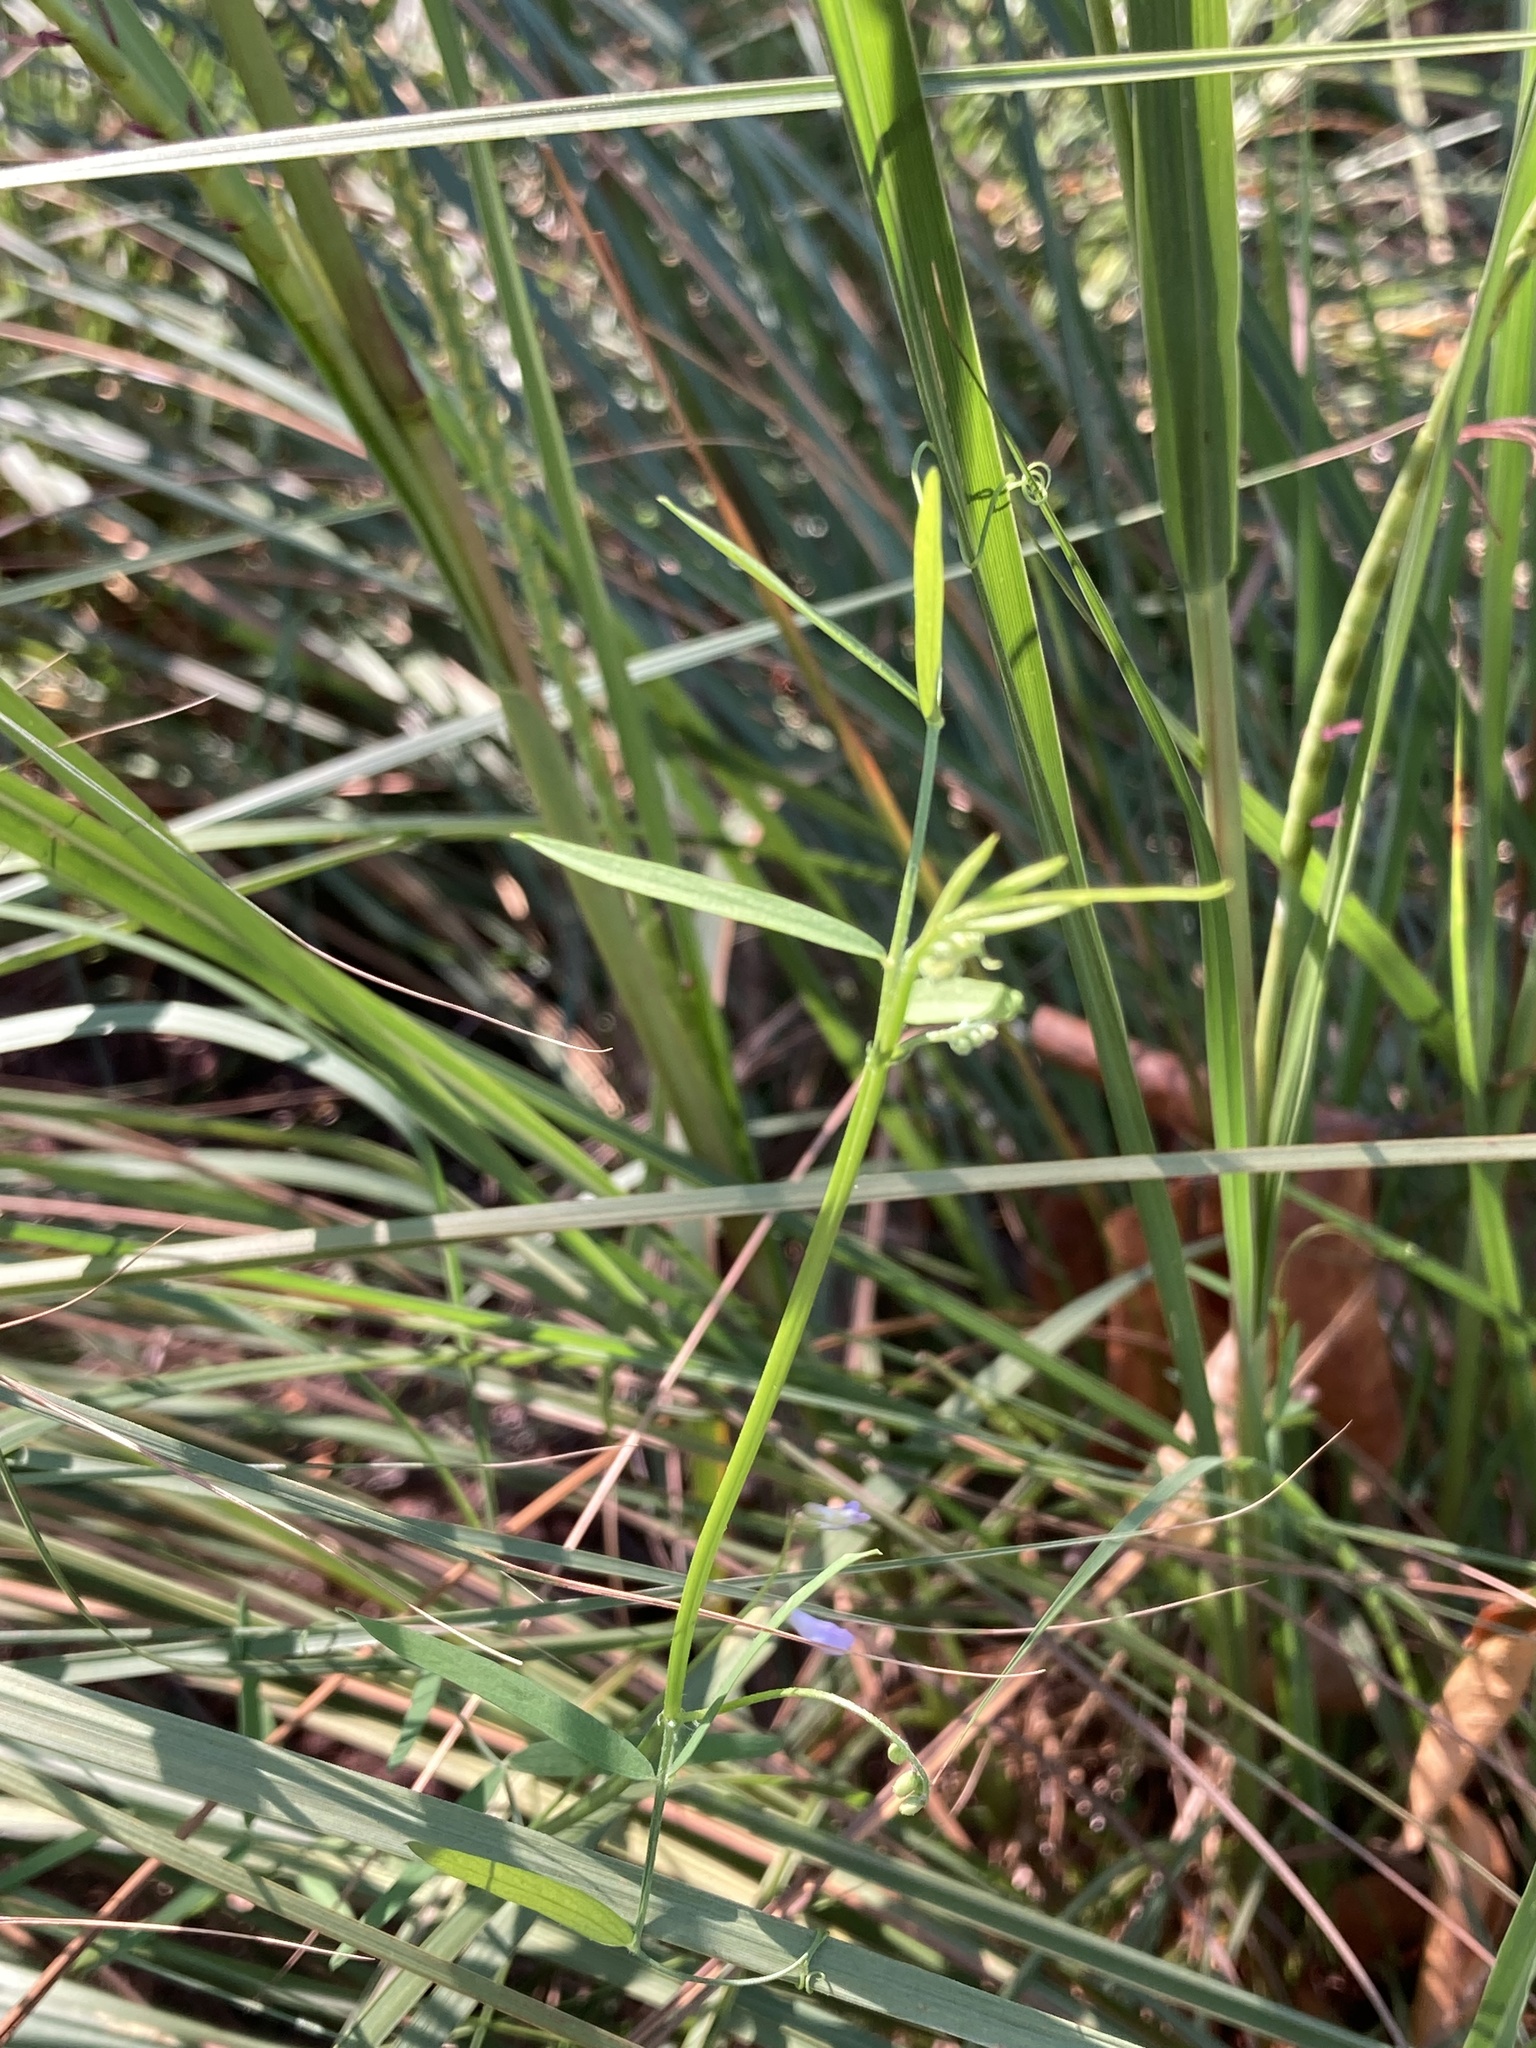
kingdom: Plantae
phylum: Tracheophyta
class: Magnoliopsida
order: Fabales
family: Fabaceae
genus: Vicia
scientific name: Vicia acutifolia
